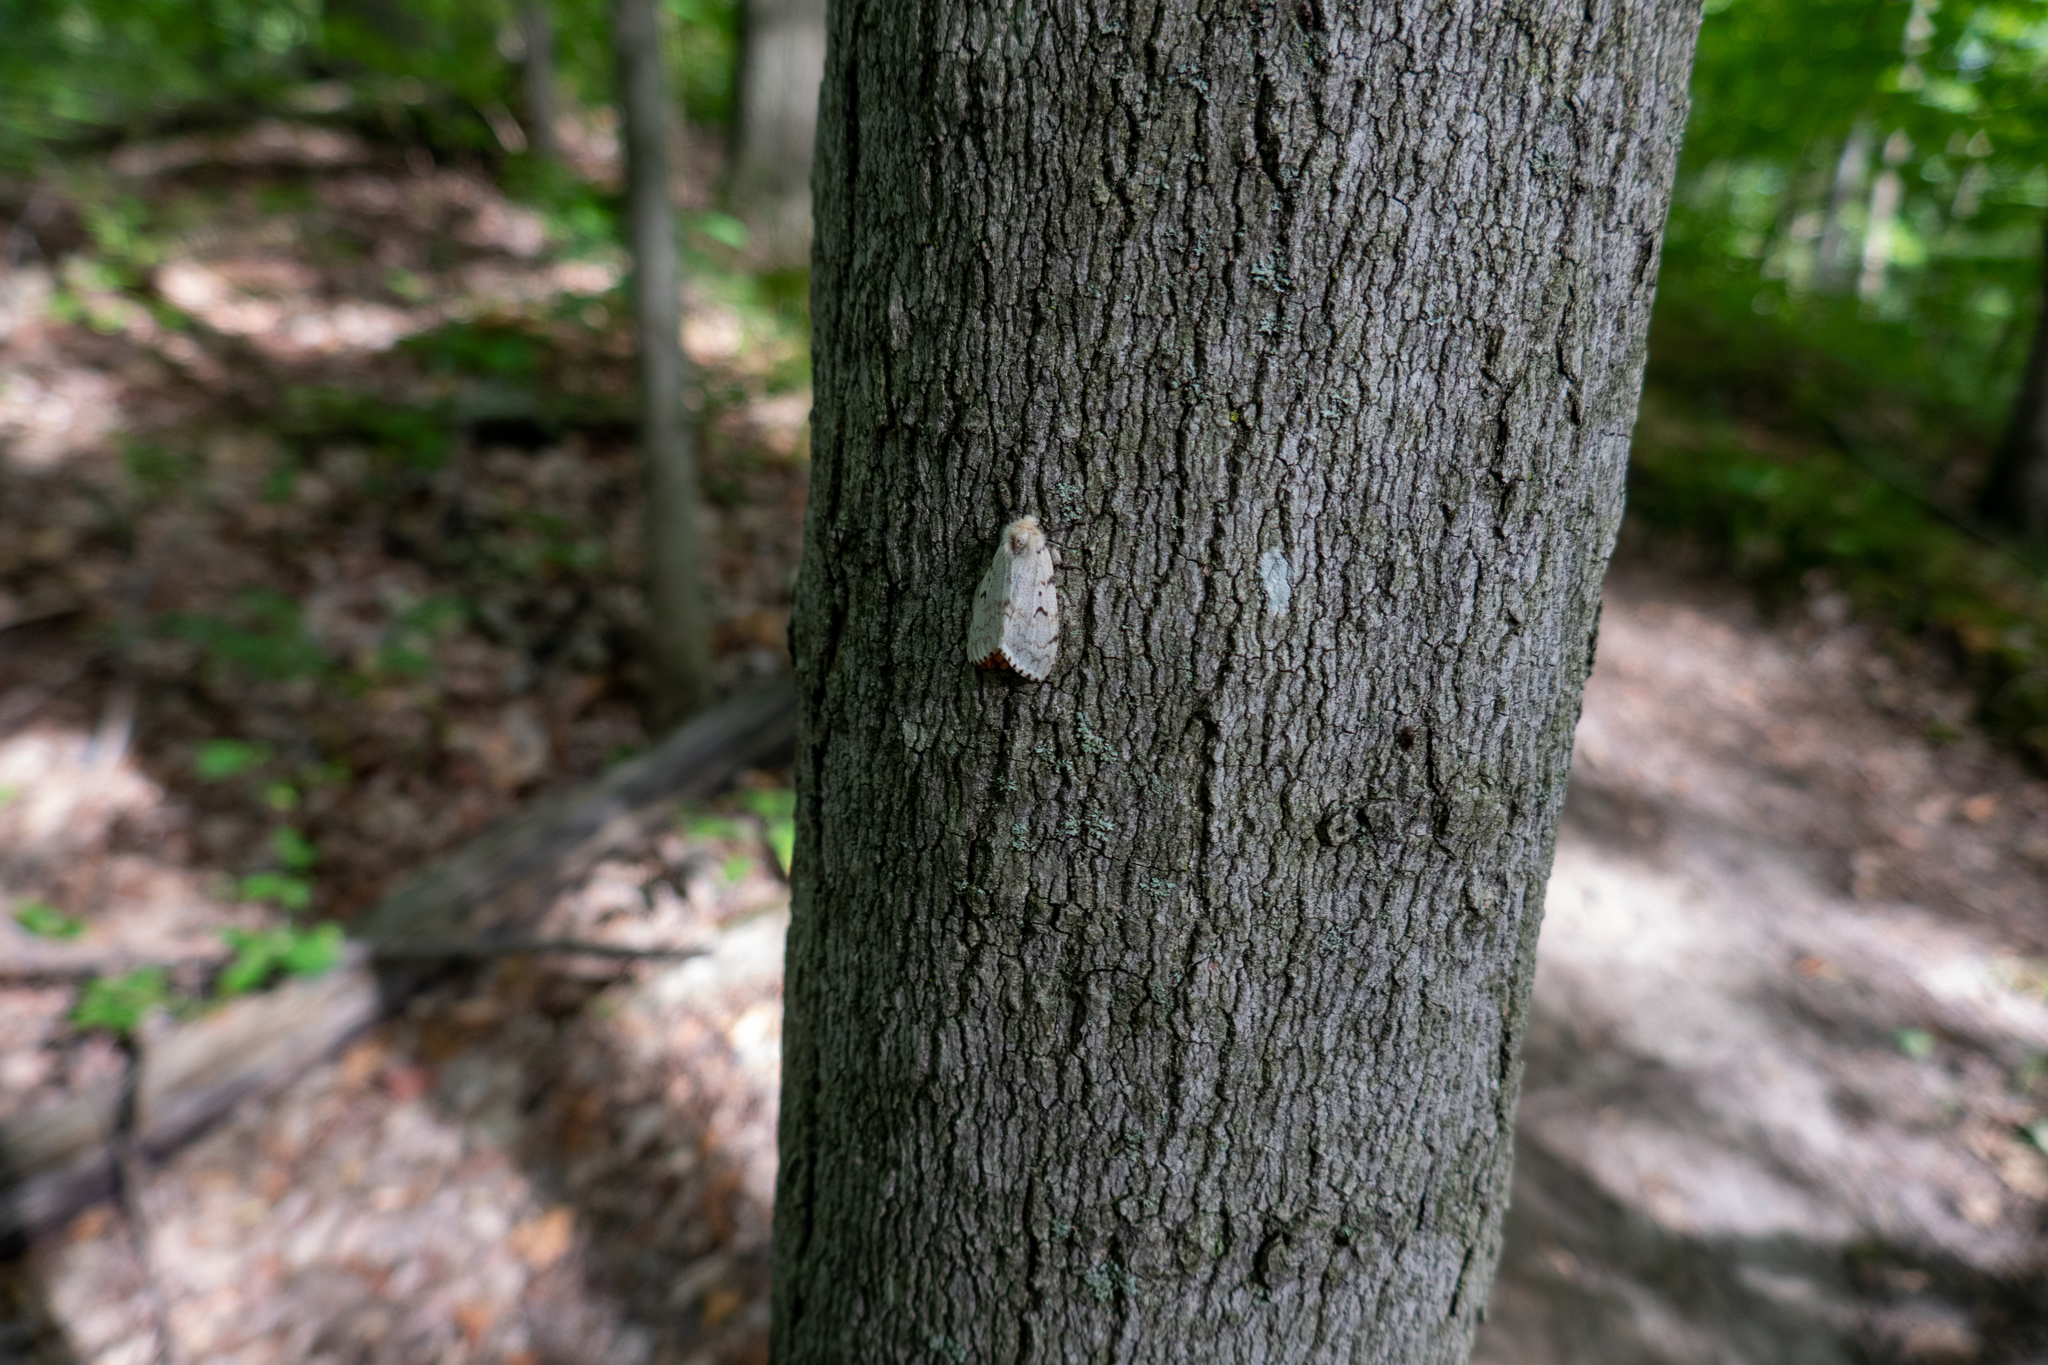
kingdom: Animalia
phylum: Arthropoda
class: Insecta
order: Lepidoptera
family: Erebidae
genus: Lymantria
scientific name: Lymantria dispar
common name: Gypsy moth
